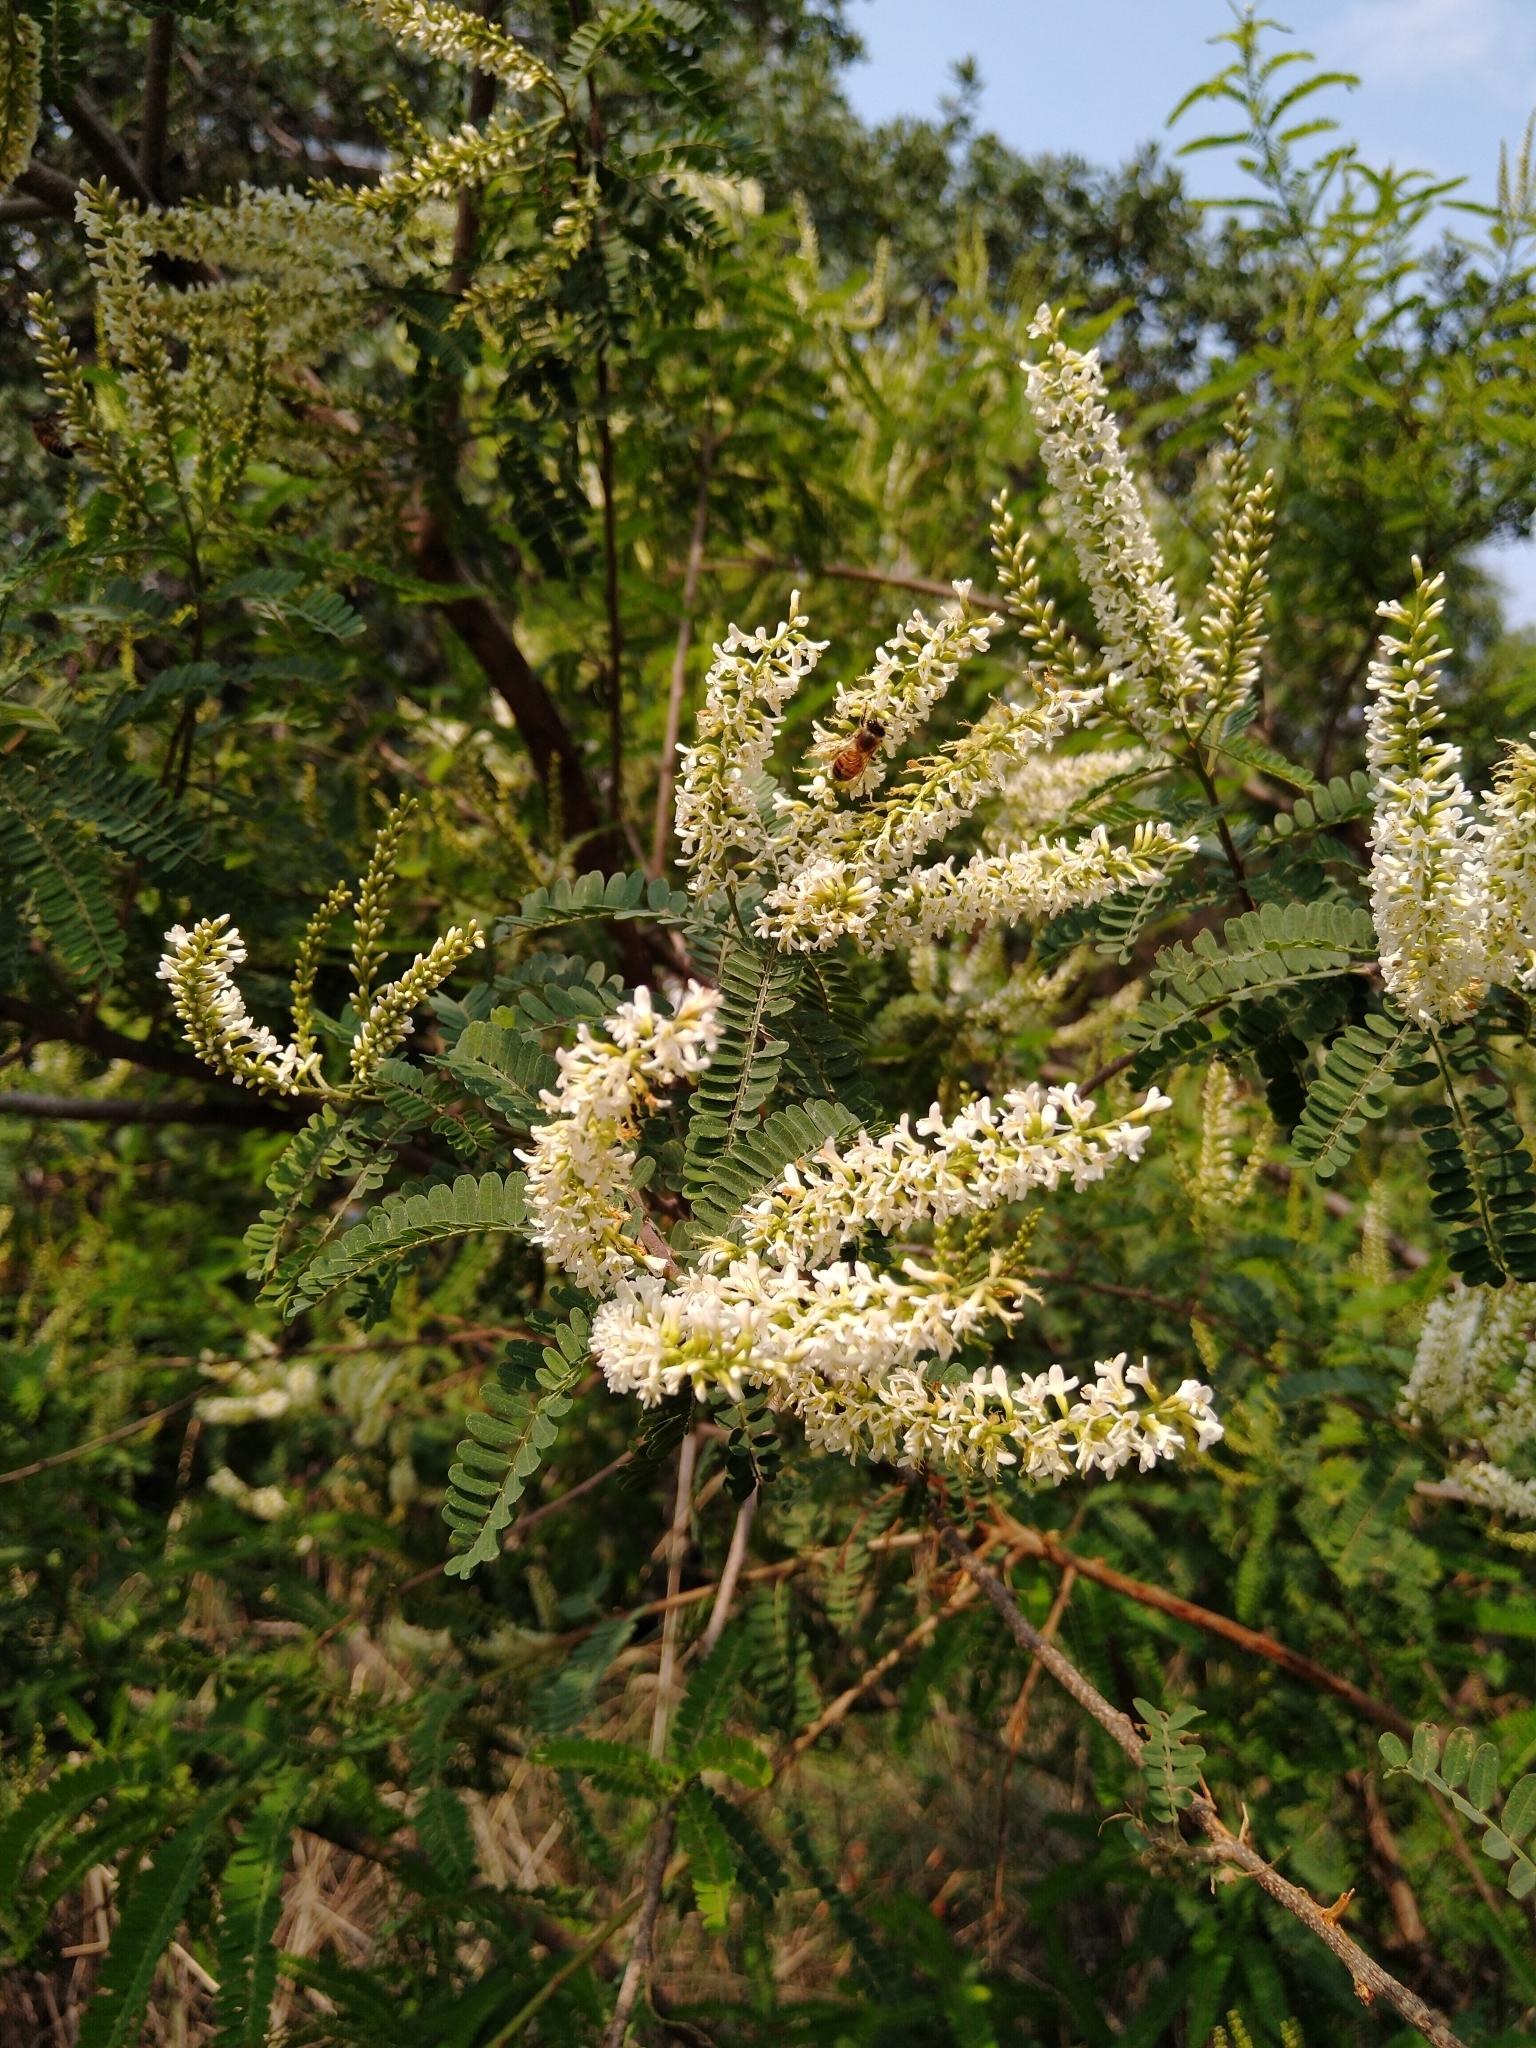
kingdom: Plantae
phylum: Tracheophyta
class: Magnoliopsida
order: Fabales
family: Fabaceae
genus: Eysenhardtia
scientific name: Eysenhardtia polystachya
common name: Kidneywood
